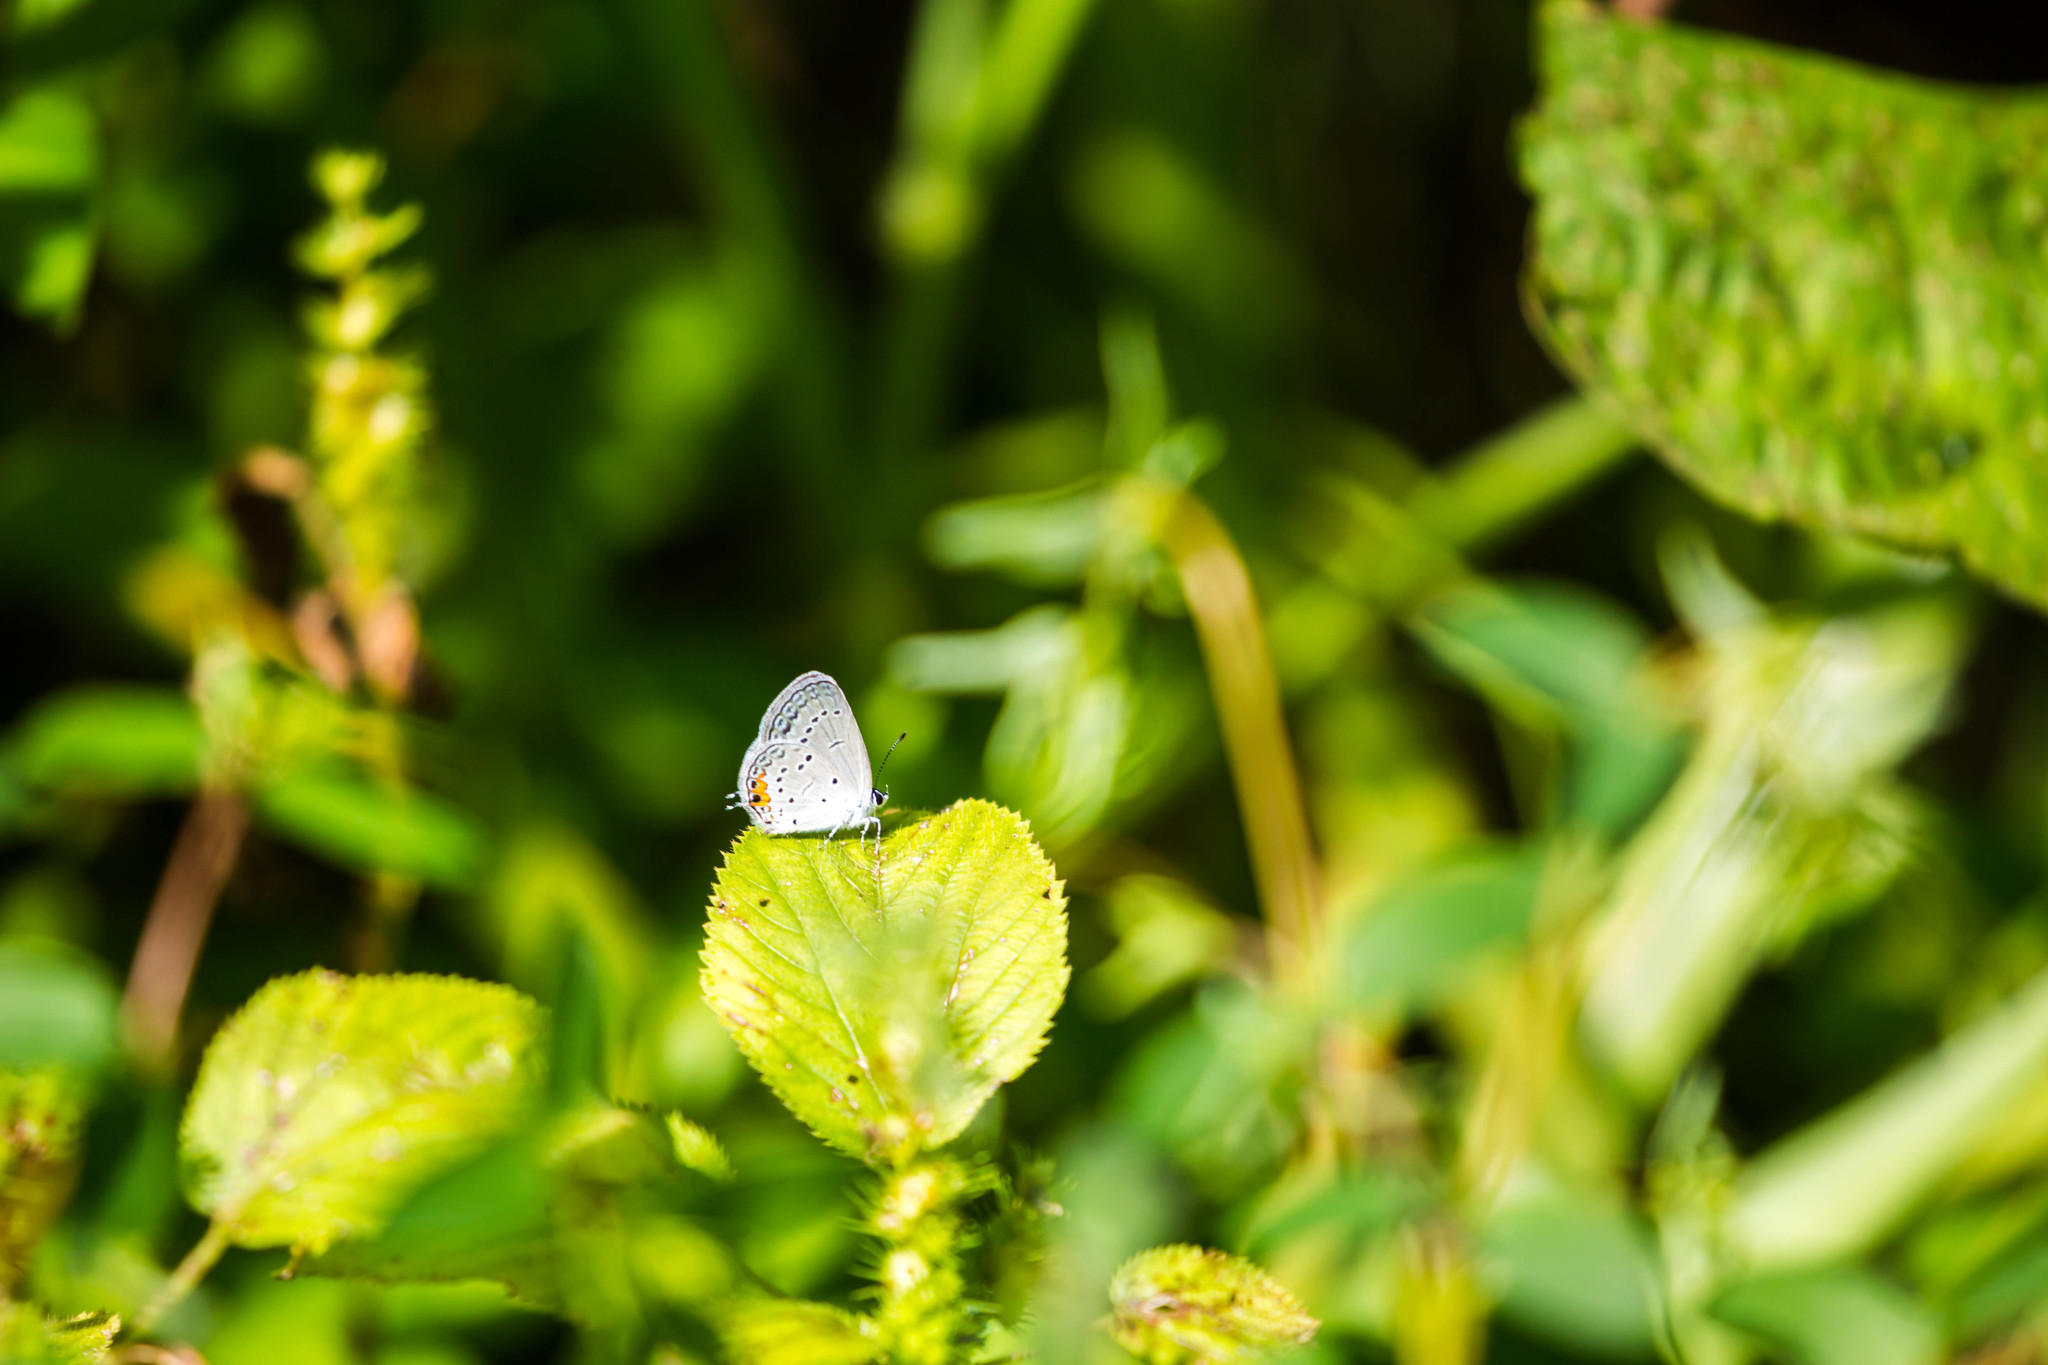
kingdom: Animalia
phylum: Arthropoda
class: Insecta
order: Lepidoptera
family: Lycaenidae
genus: Elkalyce
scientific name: Elkalyce comyntas
